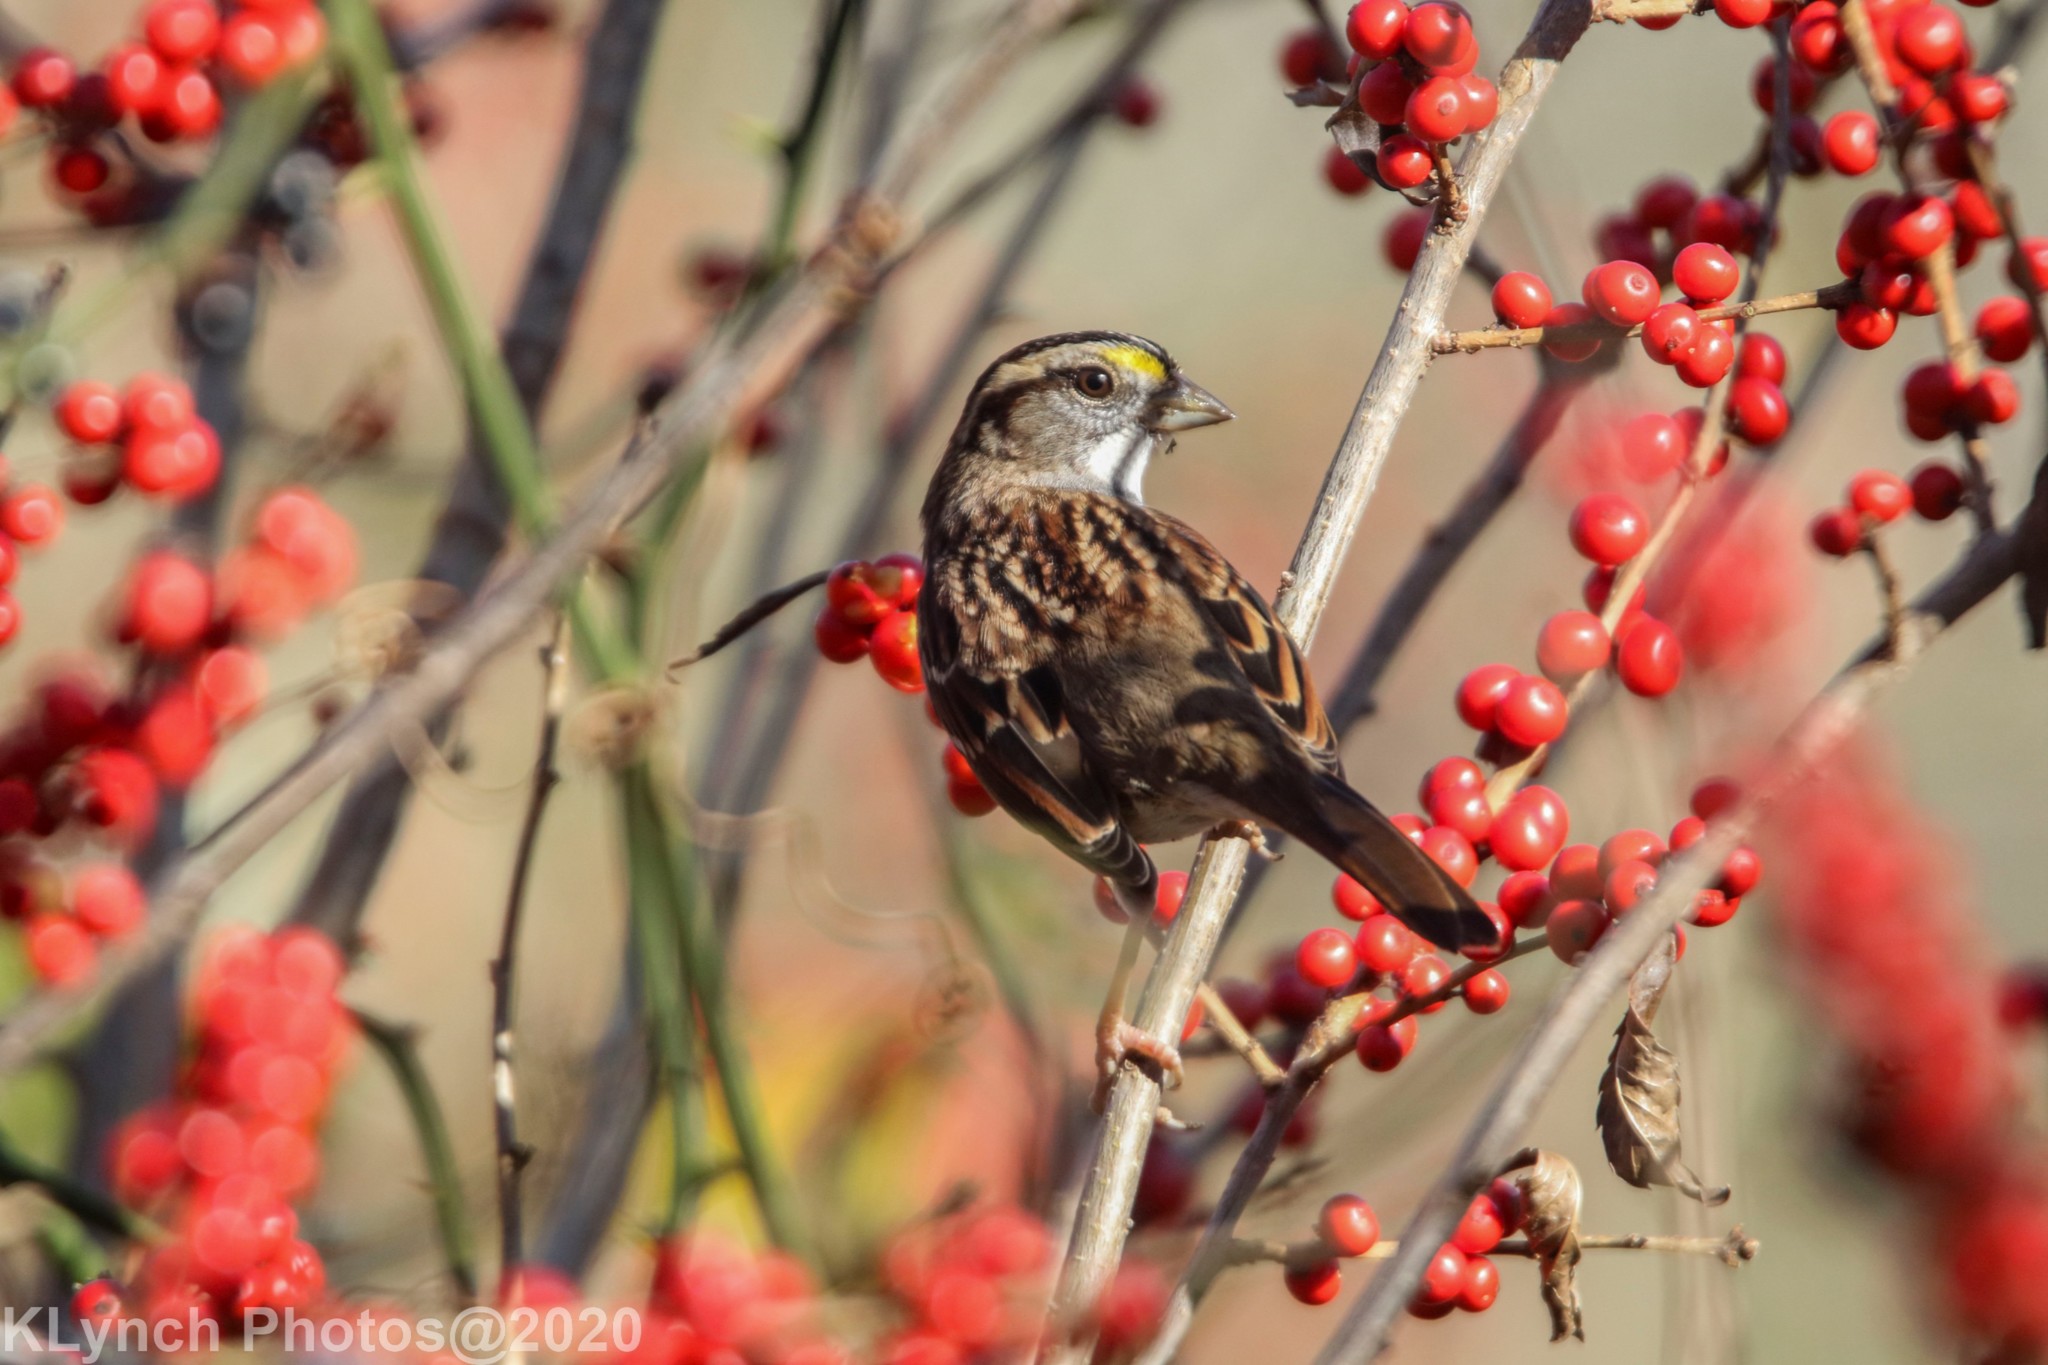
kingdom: Animalia
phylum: Chordata
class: Aves
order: Passeriformes
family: Passerellidae
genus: Zonotrichia
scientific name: Zonotrichia albicollis
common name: White-throated sparrow
